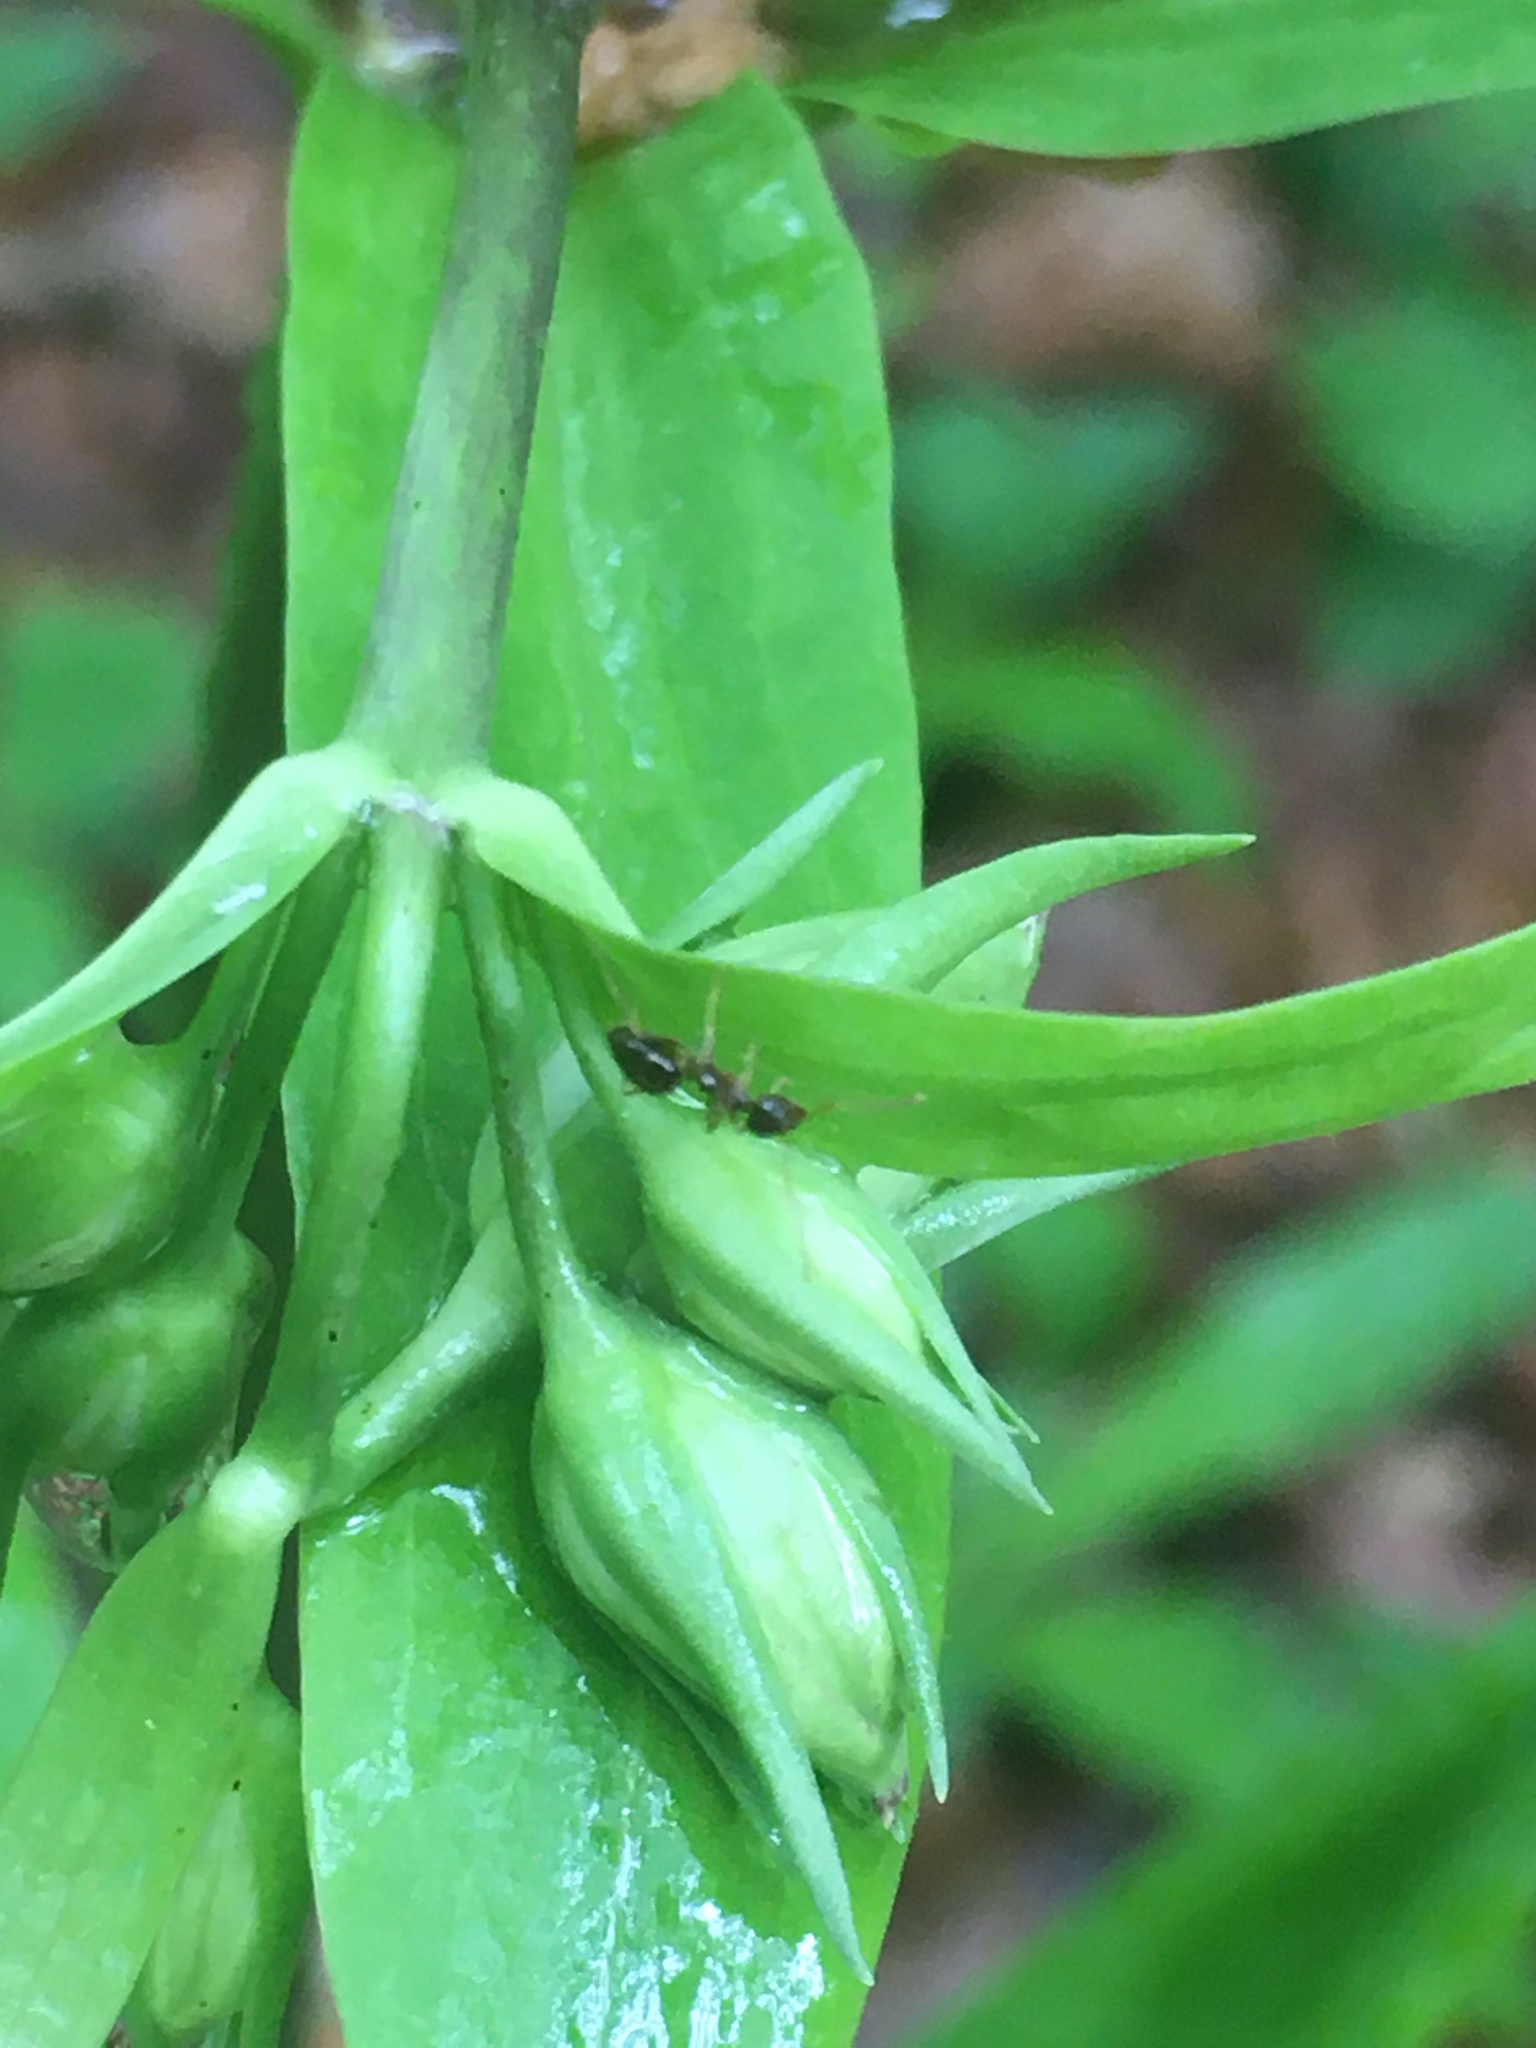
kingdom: Animalia
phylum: Arthropoda
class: Insecta
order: Hymenoptera
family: Formicidae
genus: Prenolepis
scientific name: Prenolepis imparis
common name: Small honey ant
